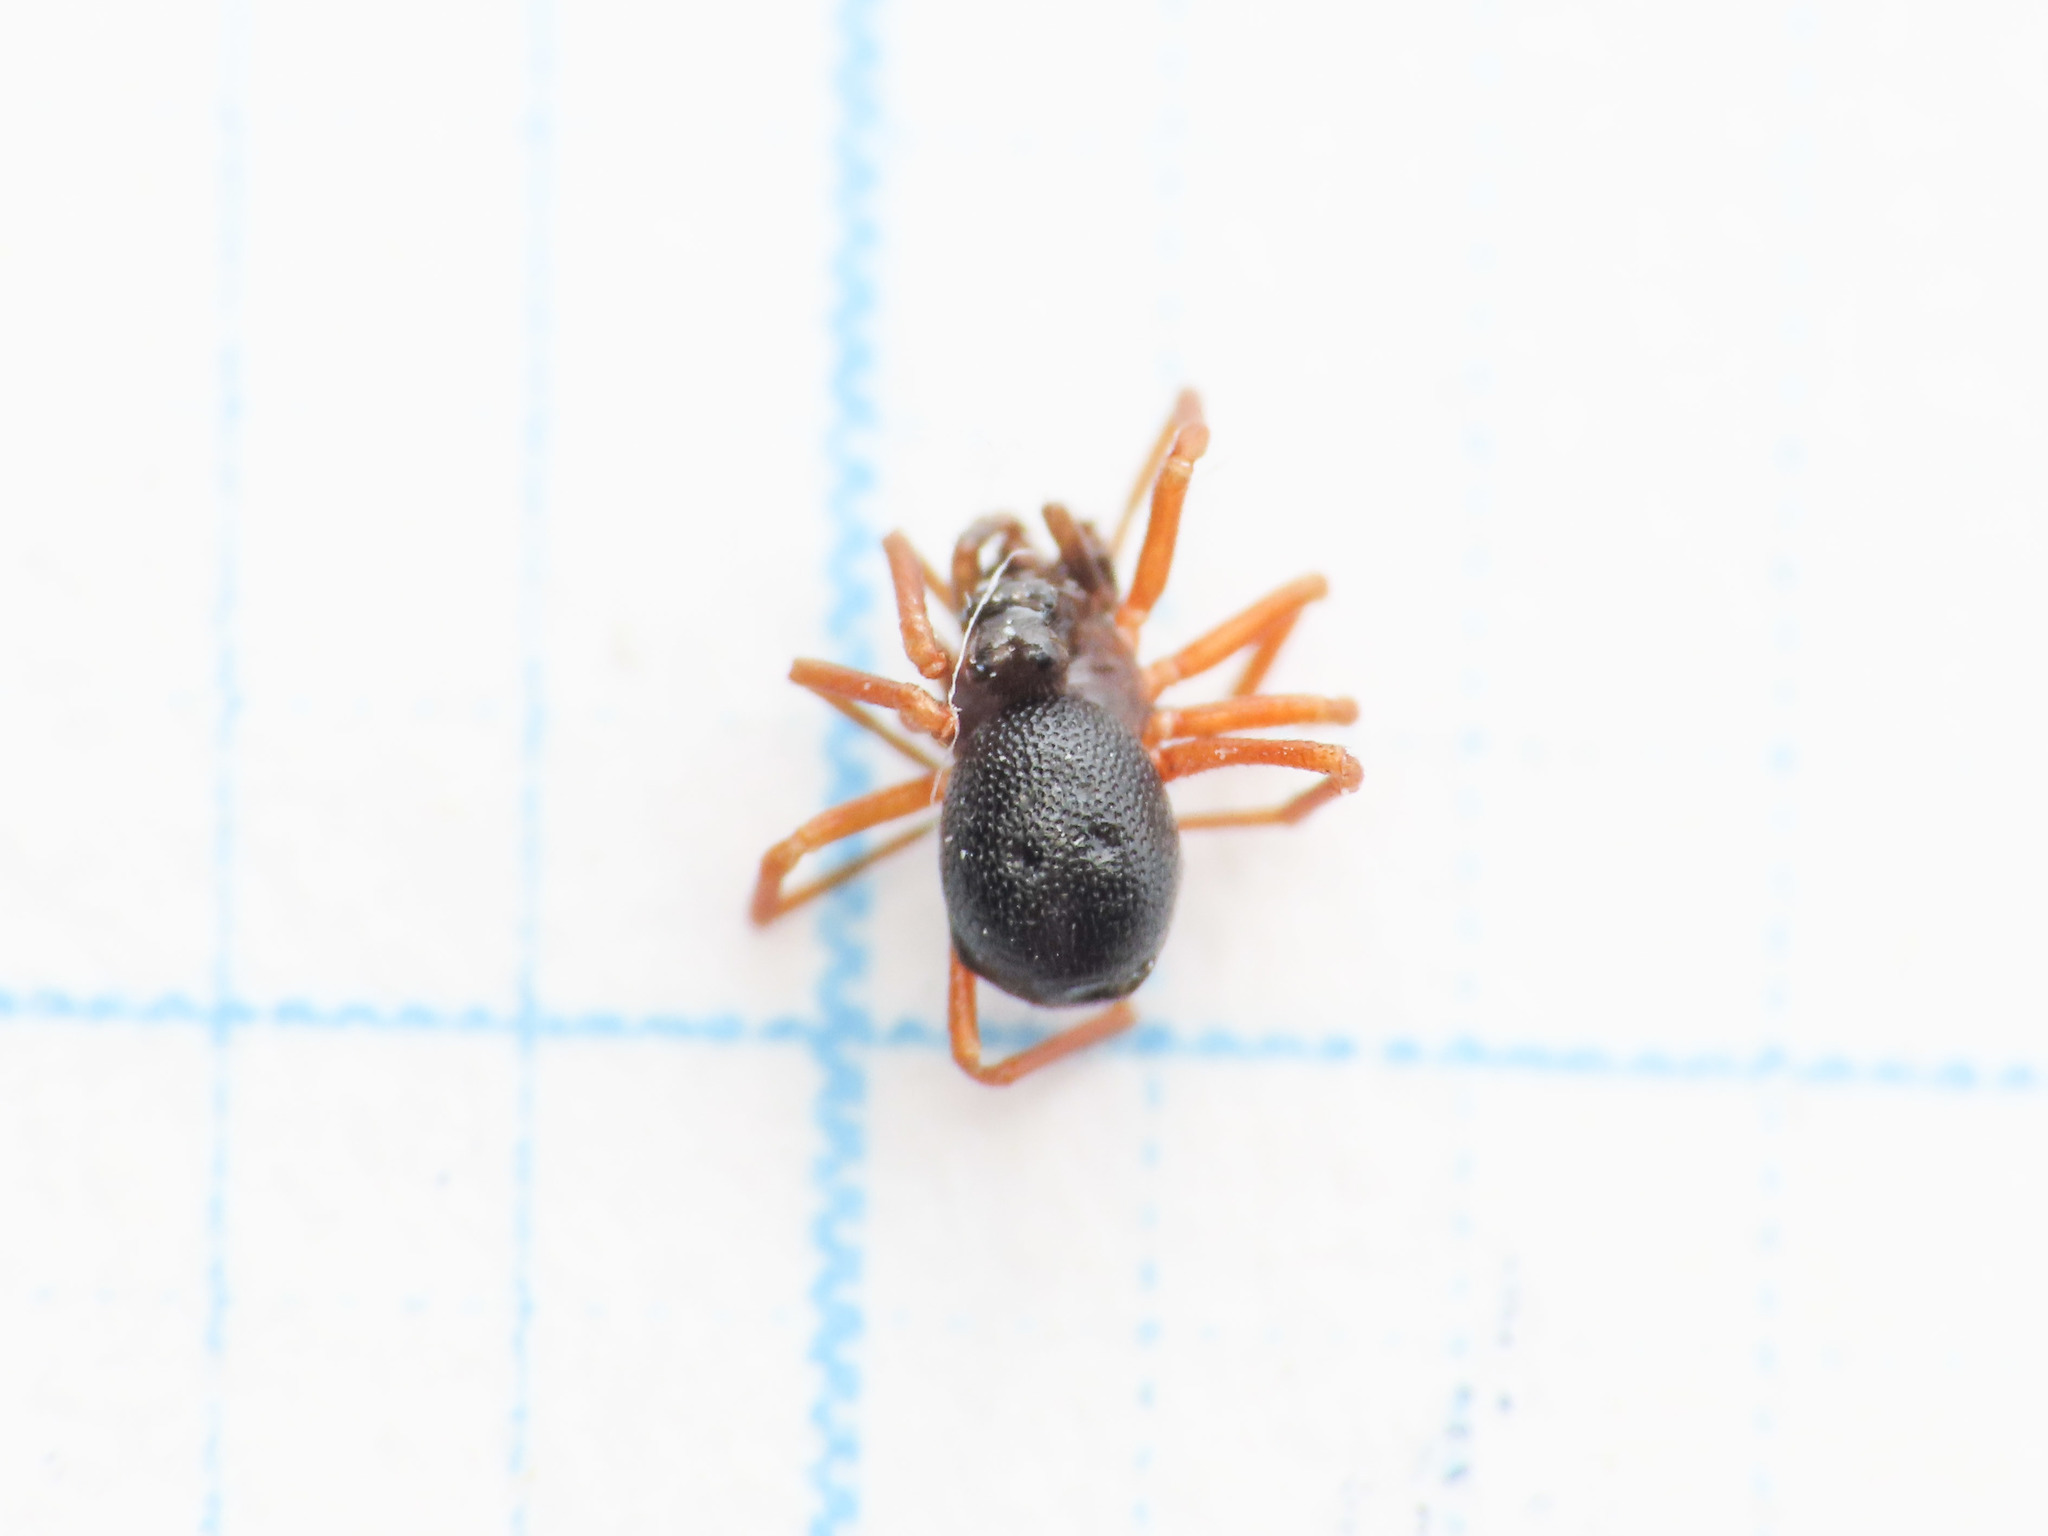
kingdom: Animalia
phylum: Arthropoda
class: Arachnida
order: Araneae
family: Linyphiidae
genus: Pelecopsis
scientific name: Pelecopsis elongata
